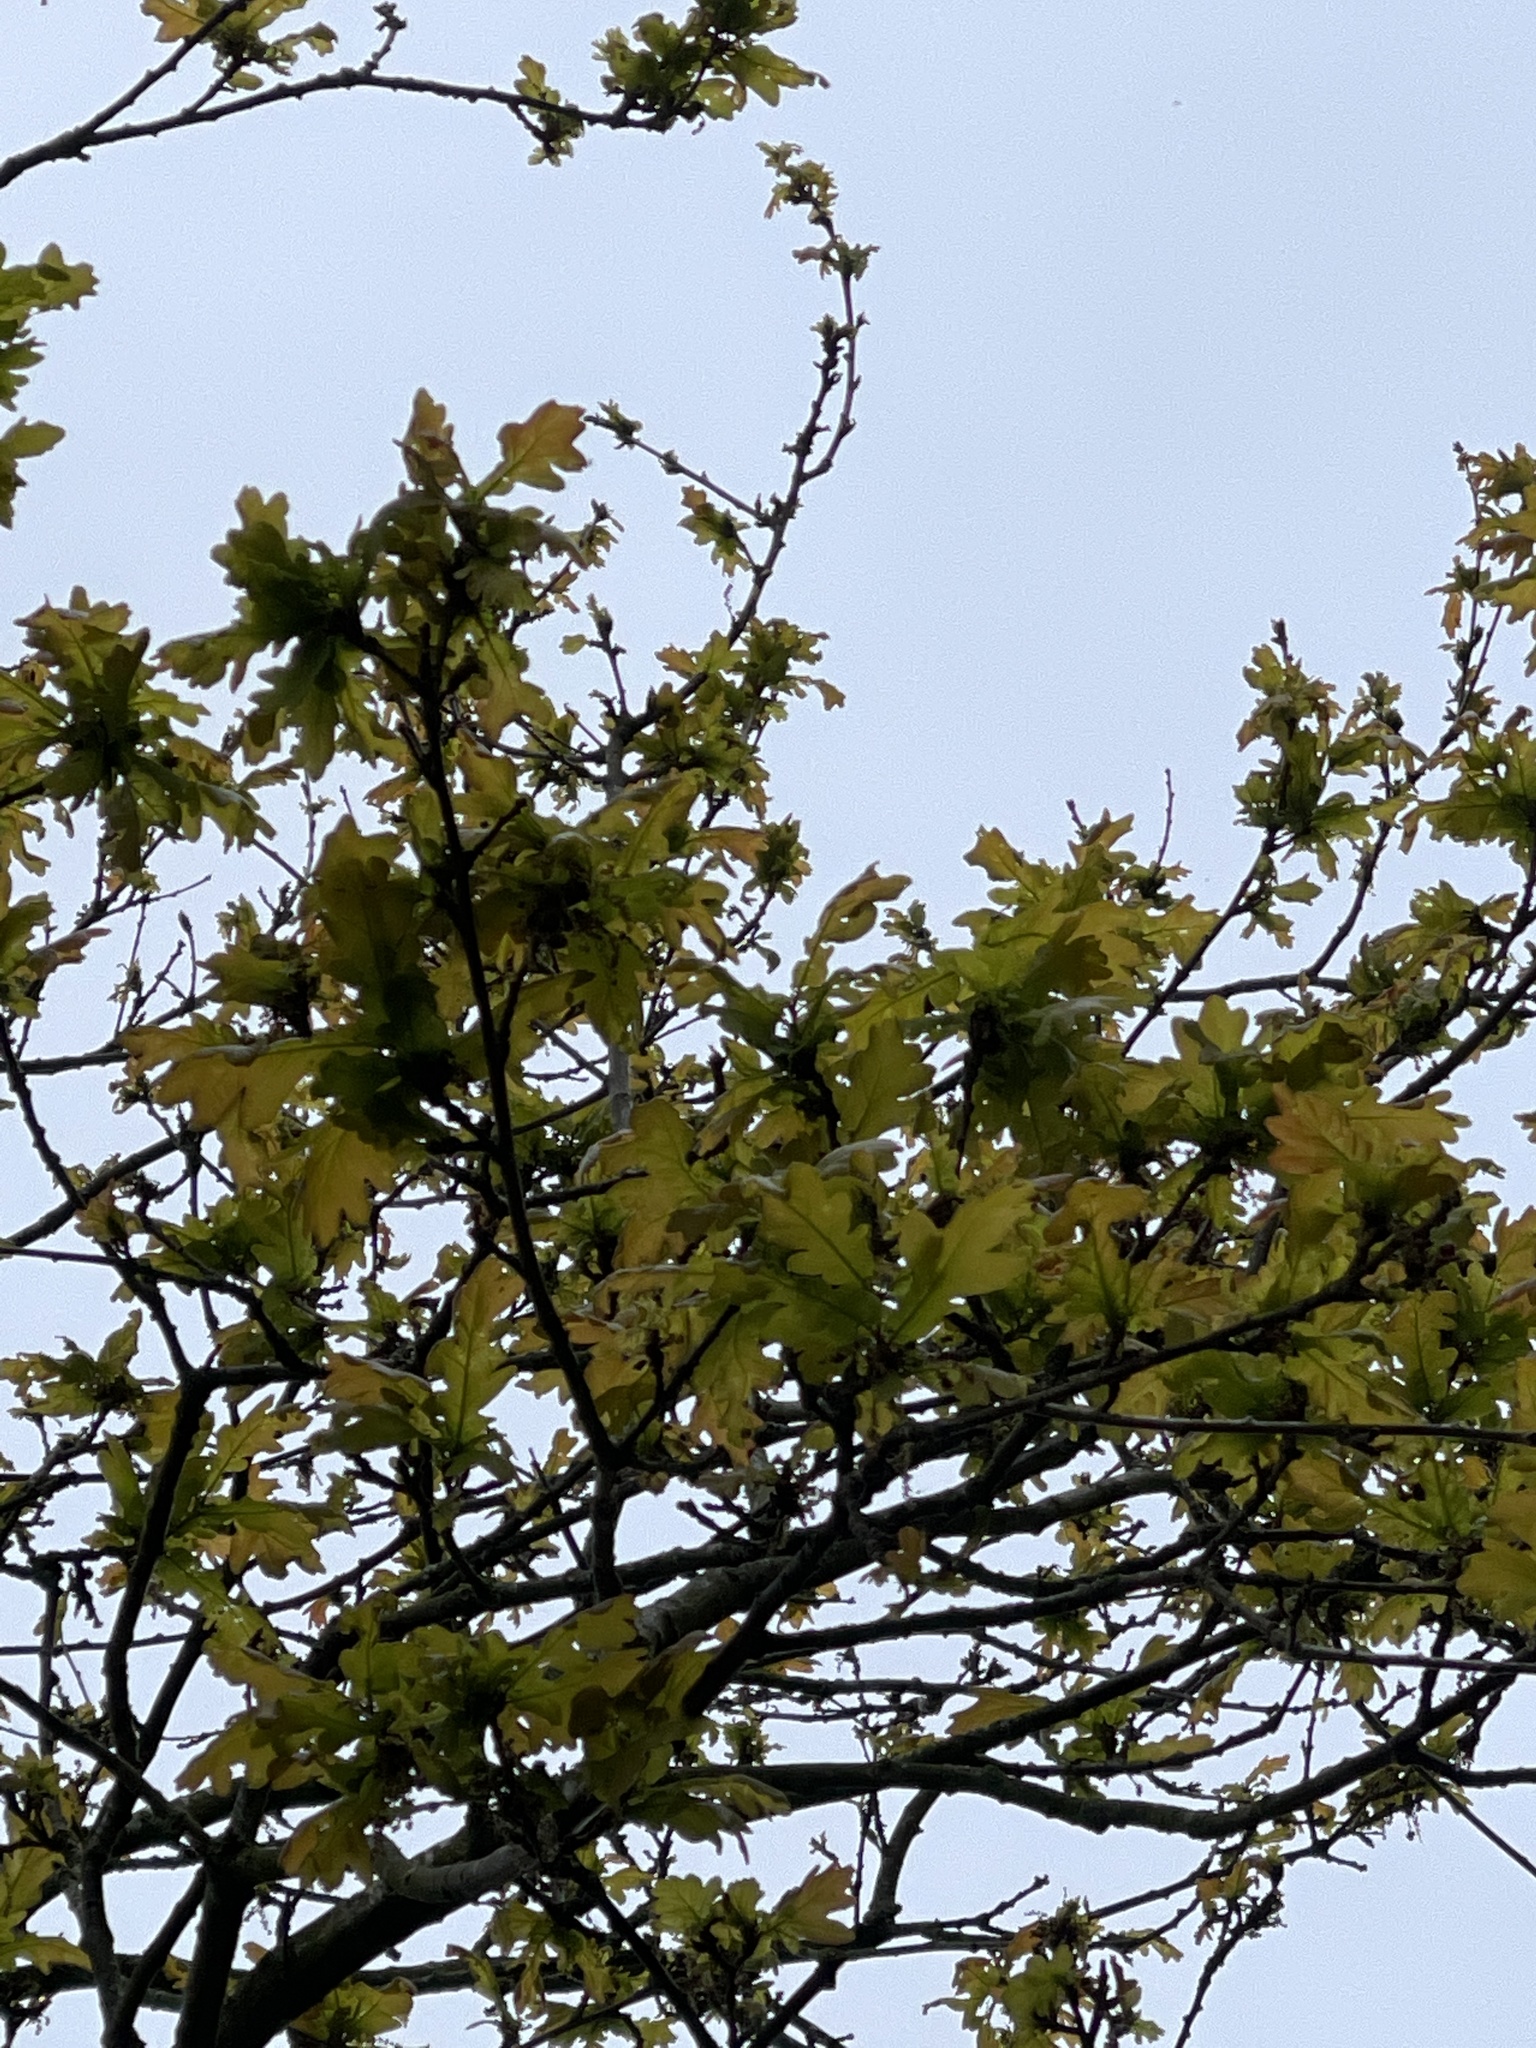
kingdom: Plantae
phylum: Tracheophyta
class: Magnoliopsida
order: Fagales
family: Fagaceae
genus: Quercus
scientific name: Quercus robur
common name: Pedunculate oak
